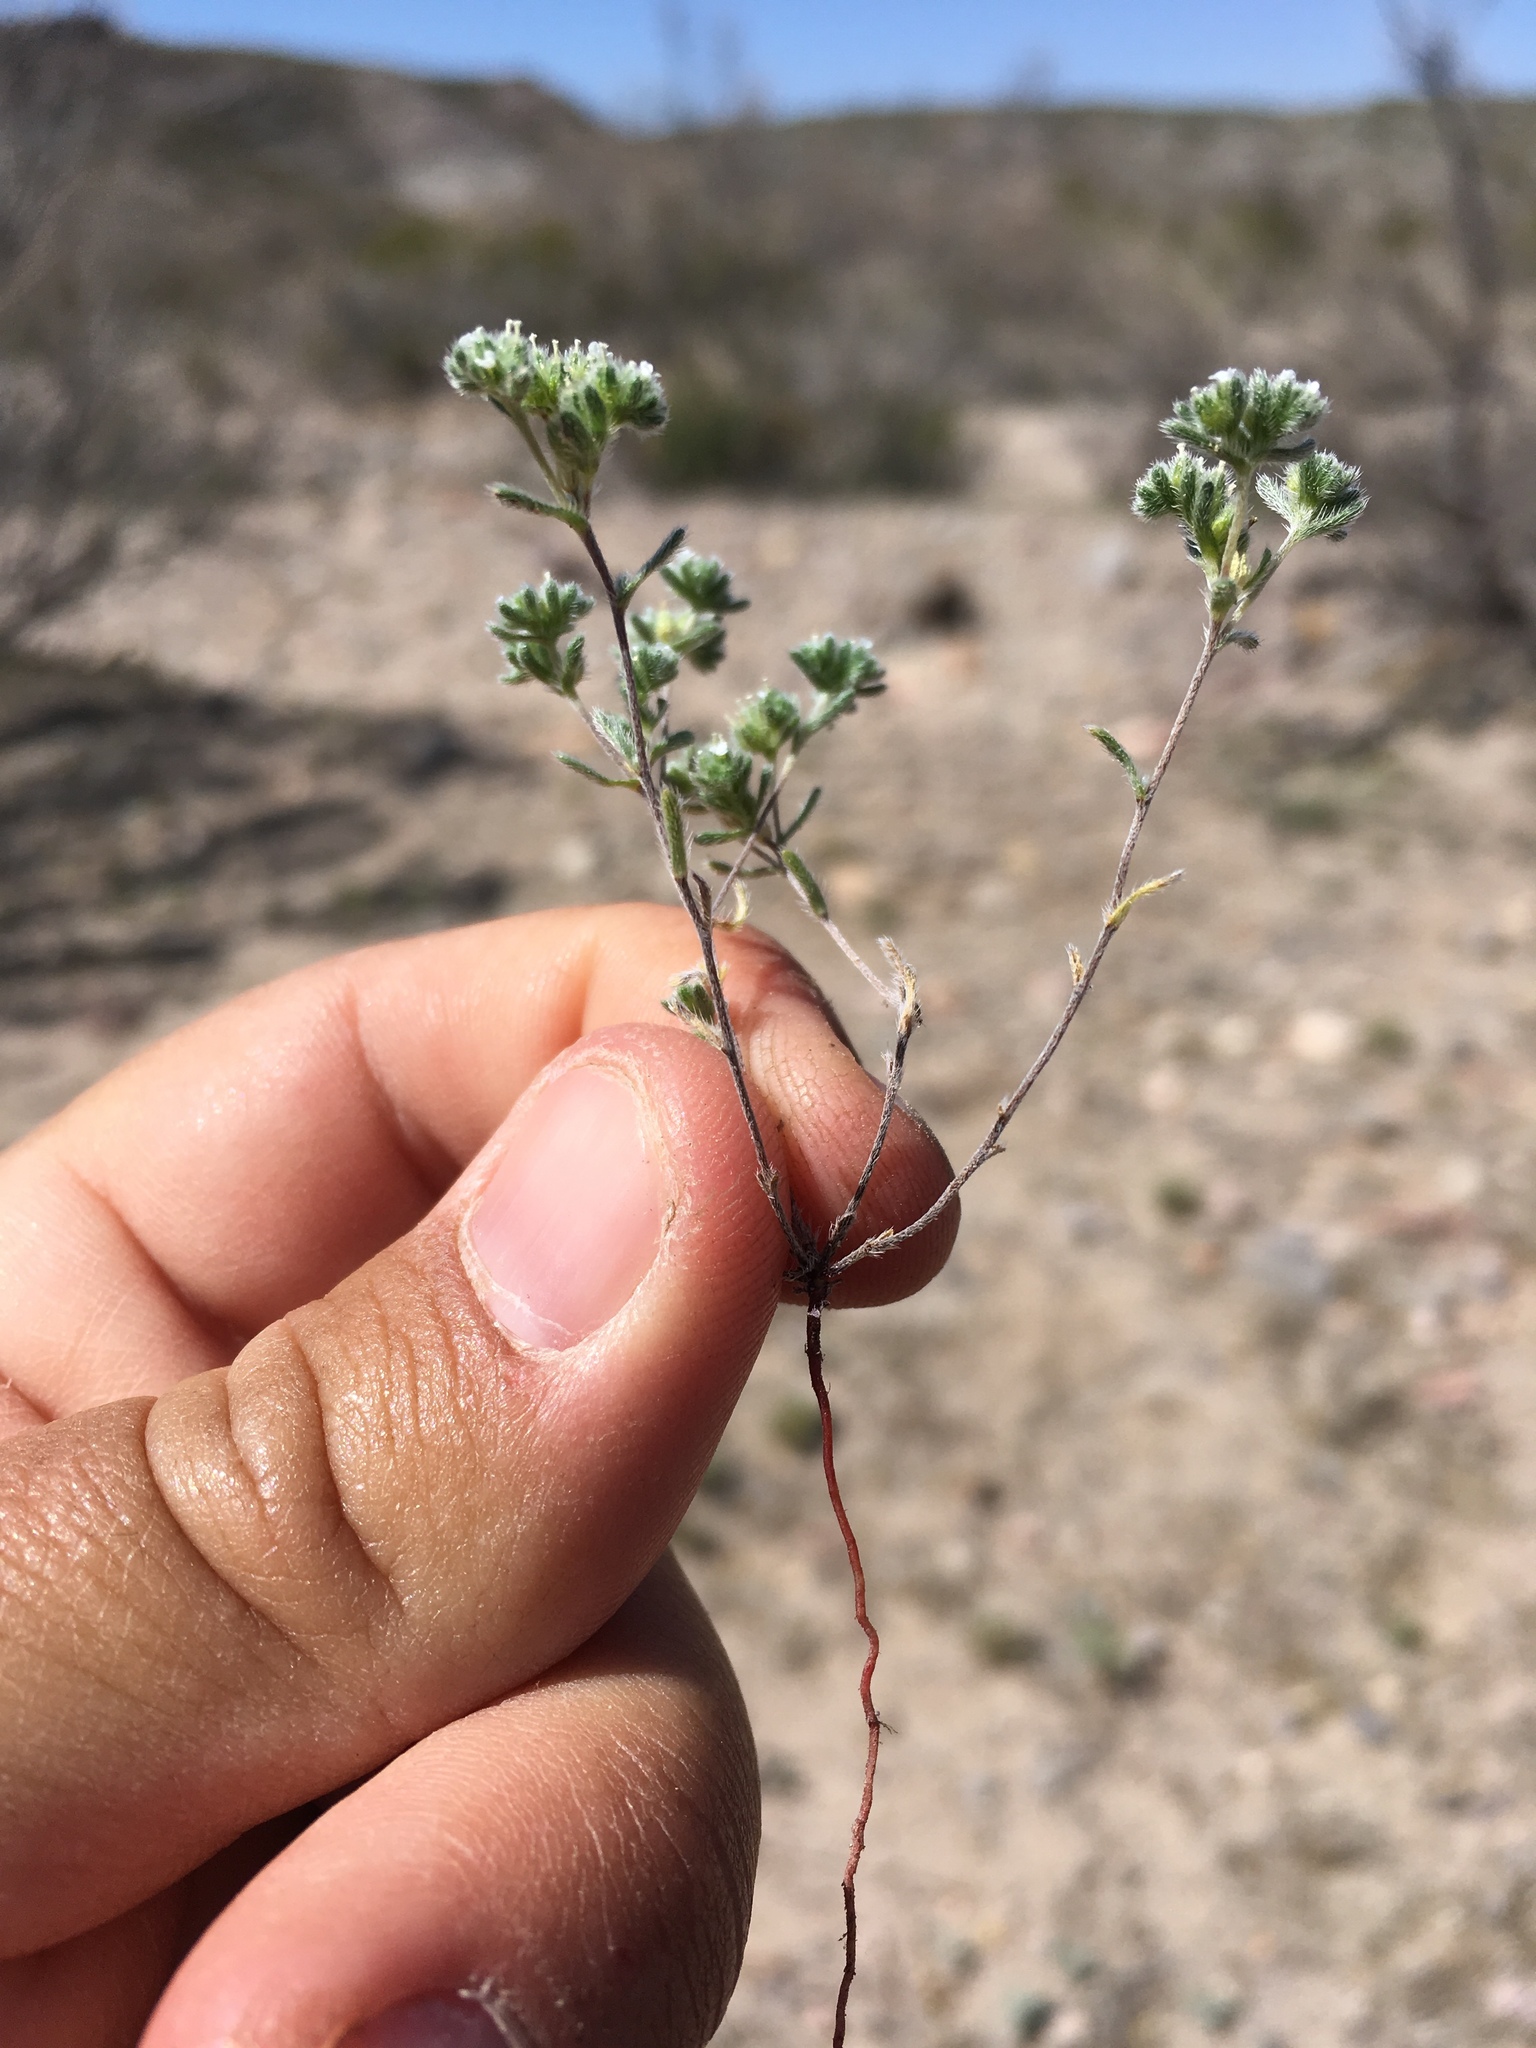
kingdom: Plantae
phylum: Tracheophyta
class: Magnoliopsida
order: Boraginales
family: Boraginaceae
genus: Eremocarya
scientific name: Eremocarya micrantha
